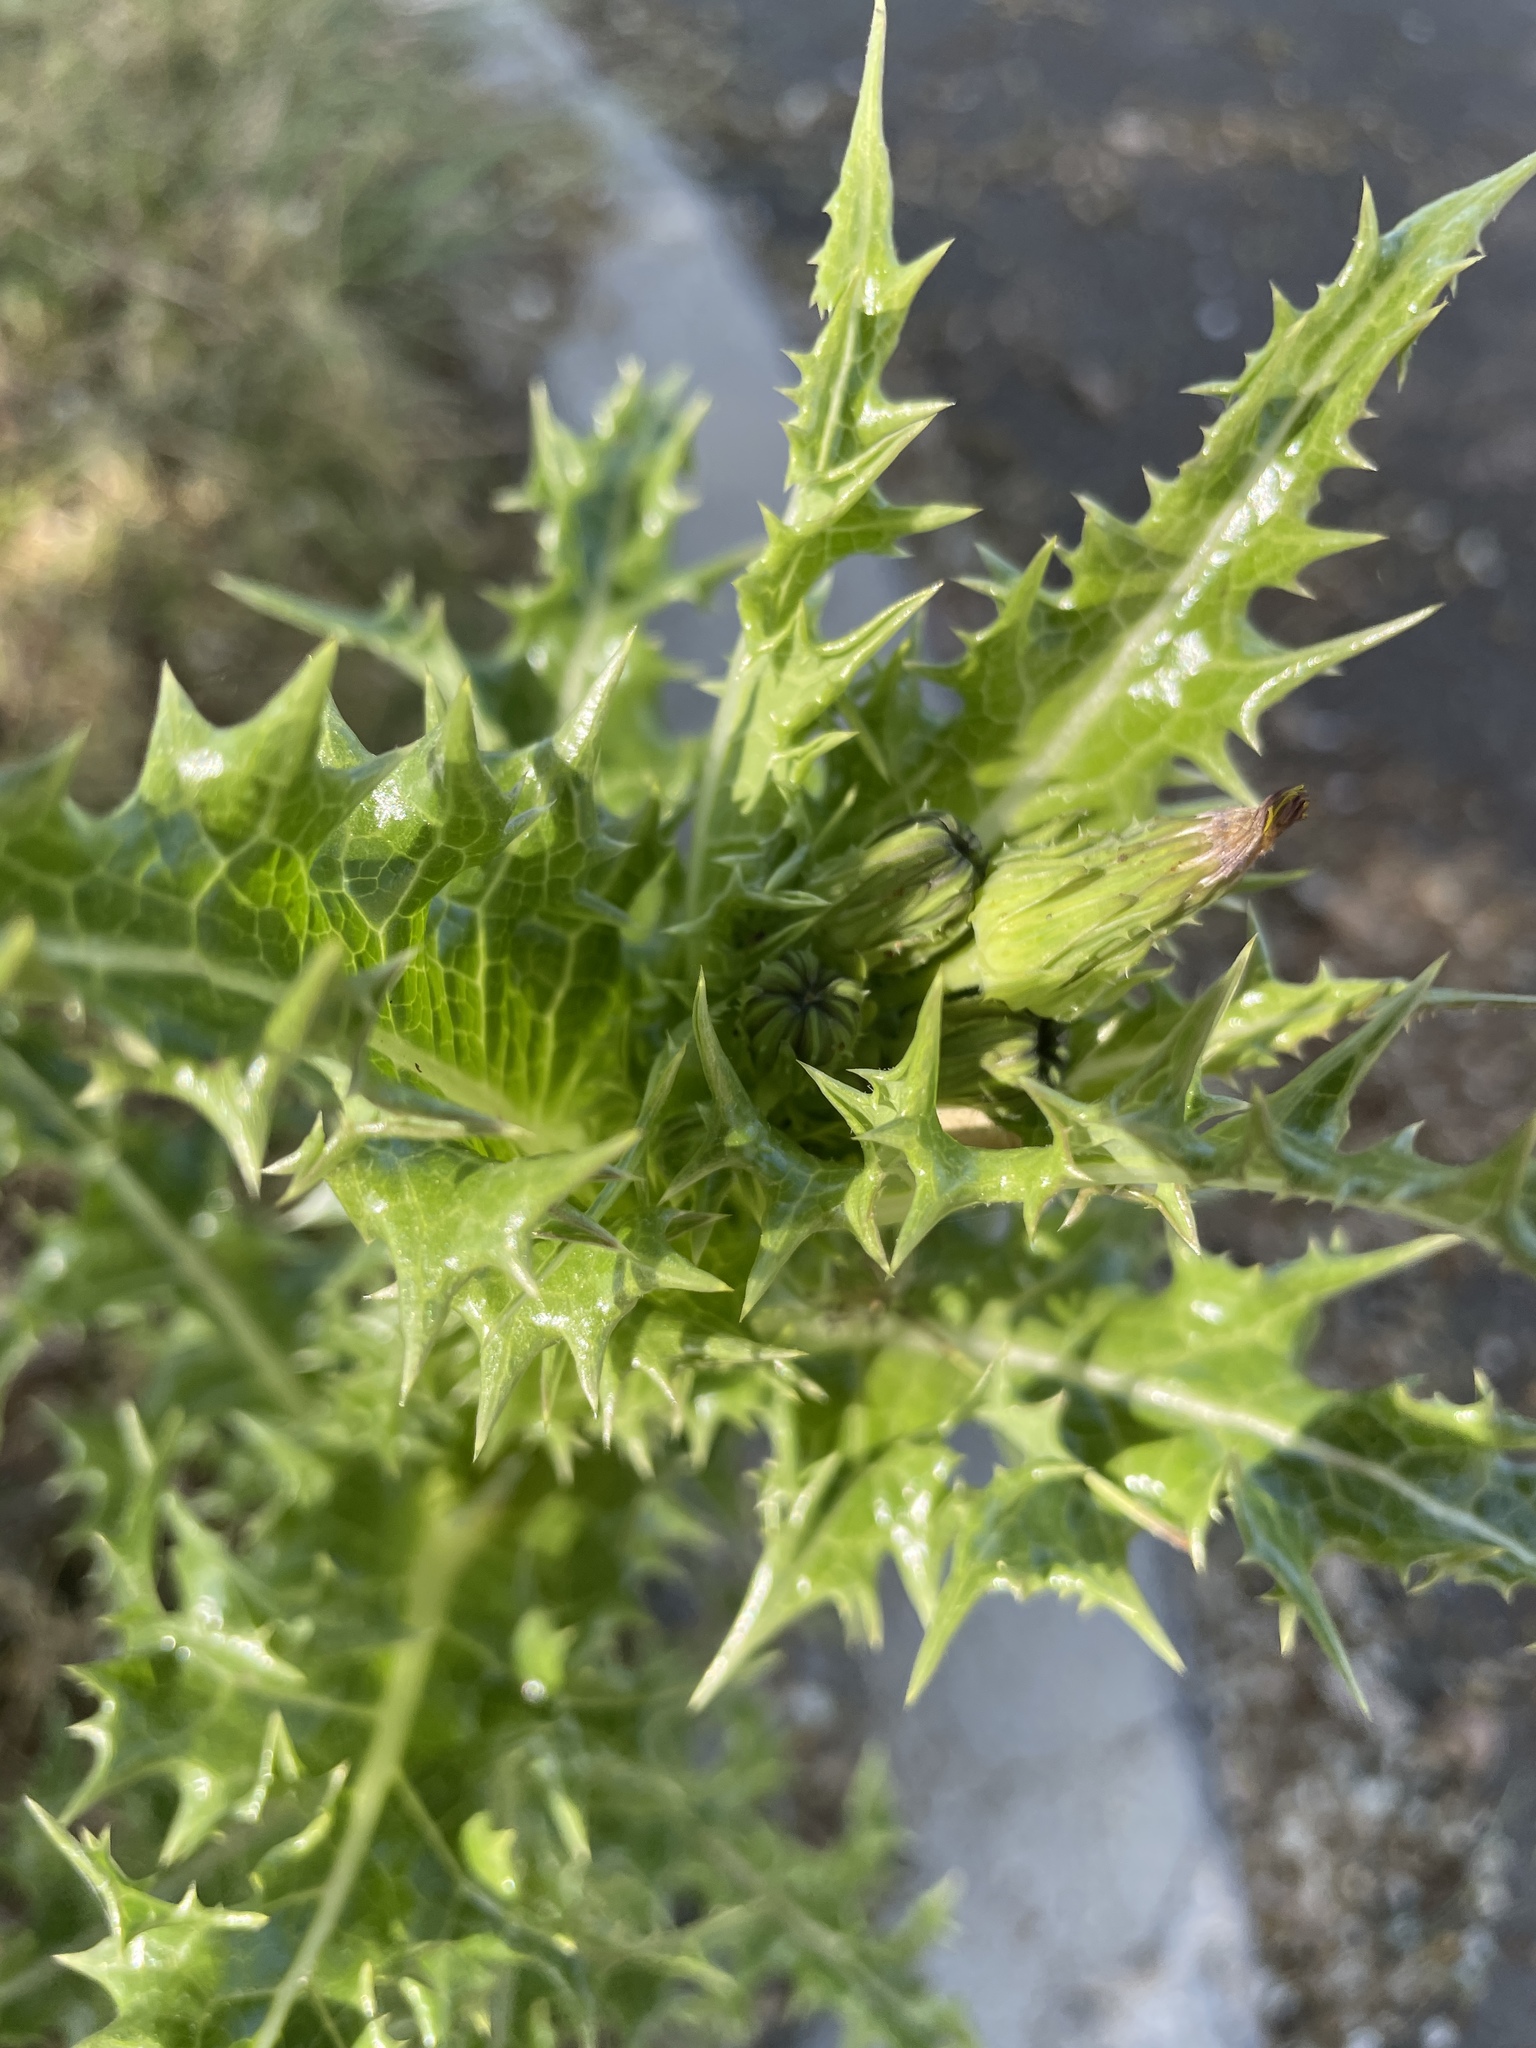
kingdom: Plantae
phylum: Tracheophyta
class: Magnoliopsida
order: Asterales
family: Asteraceae
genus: Sonchus
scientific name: Sonchus asper
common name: Prickly sow-thistle
